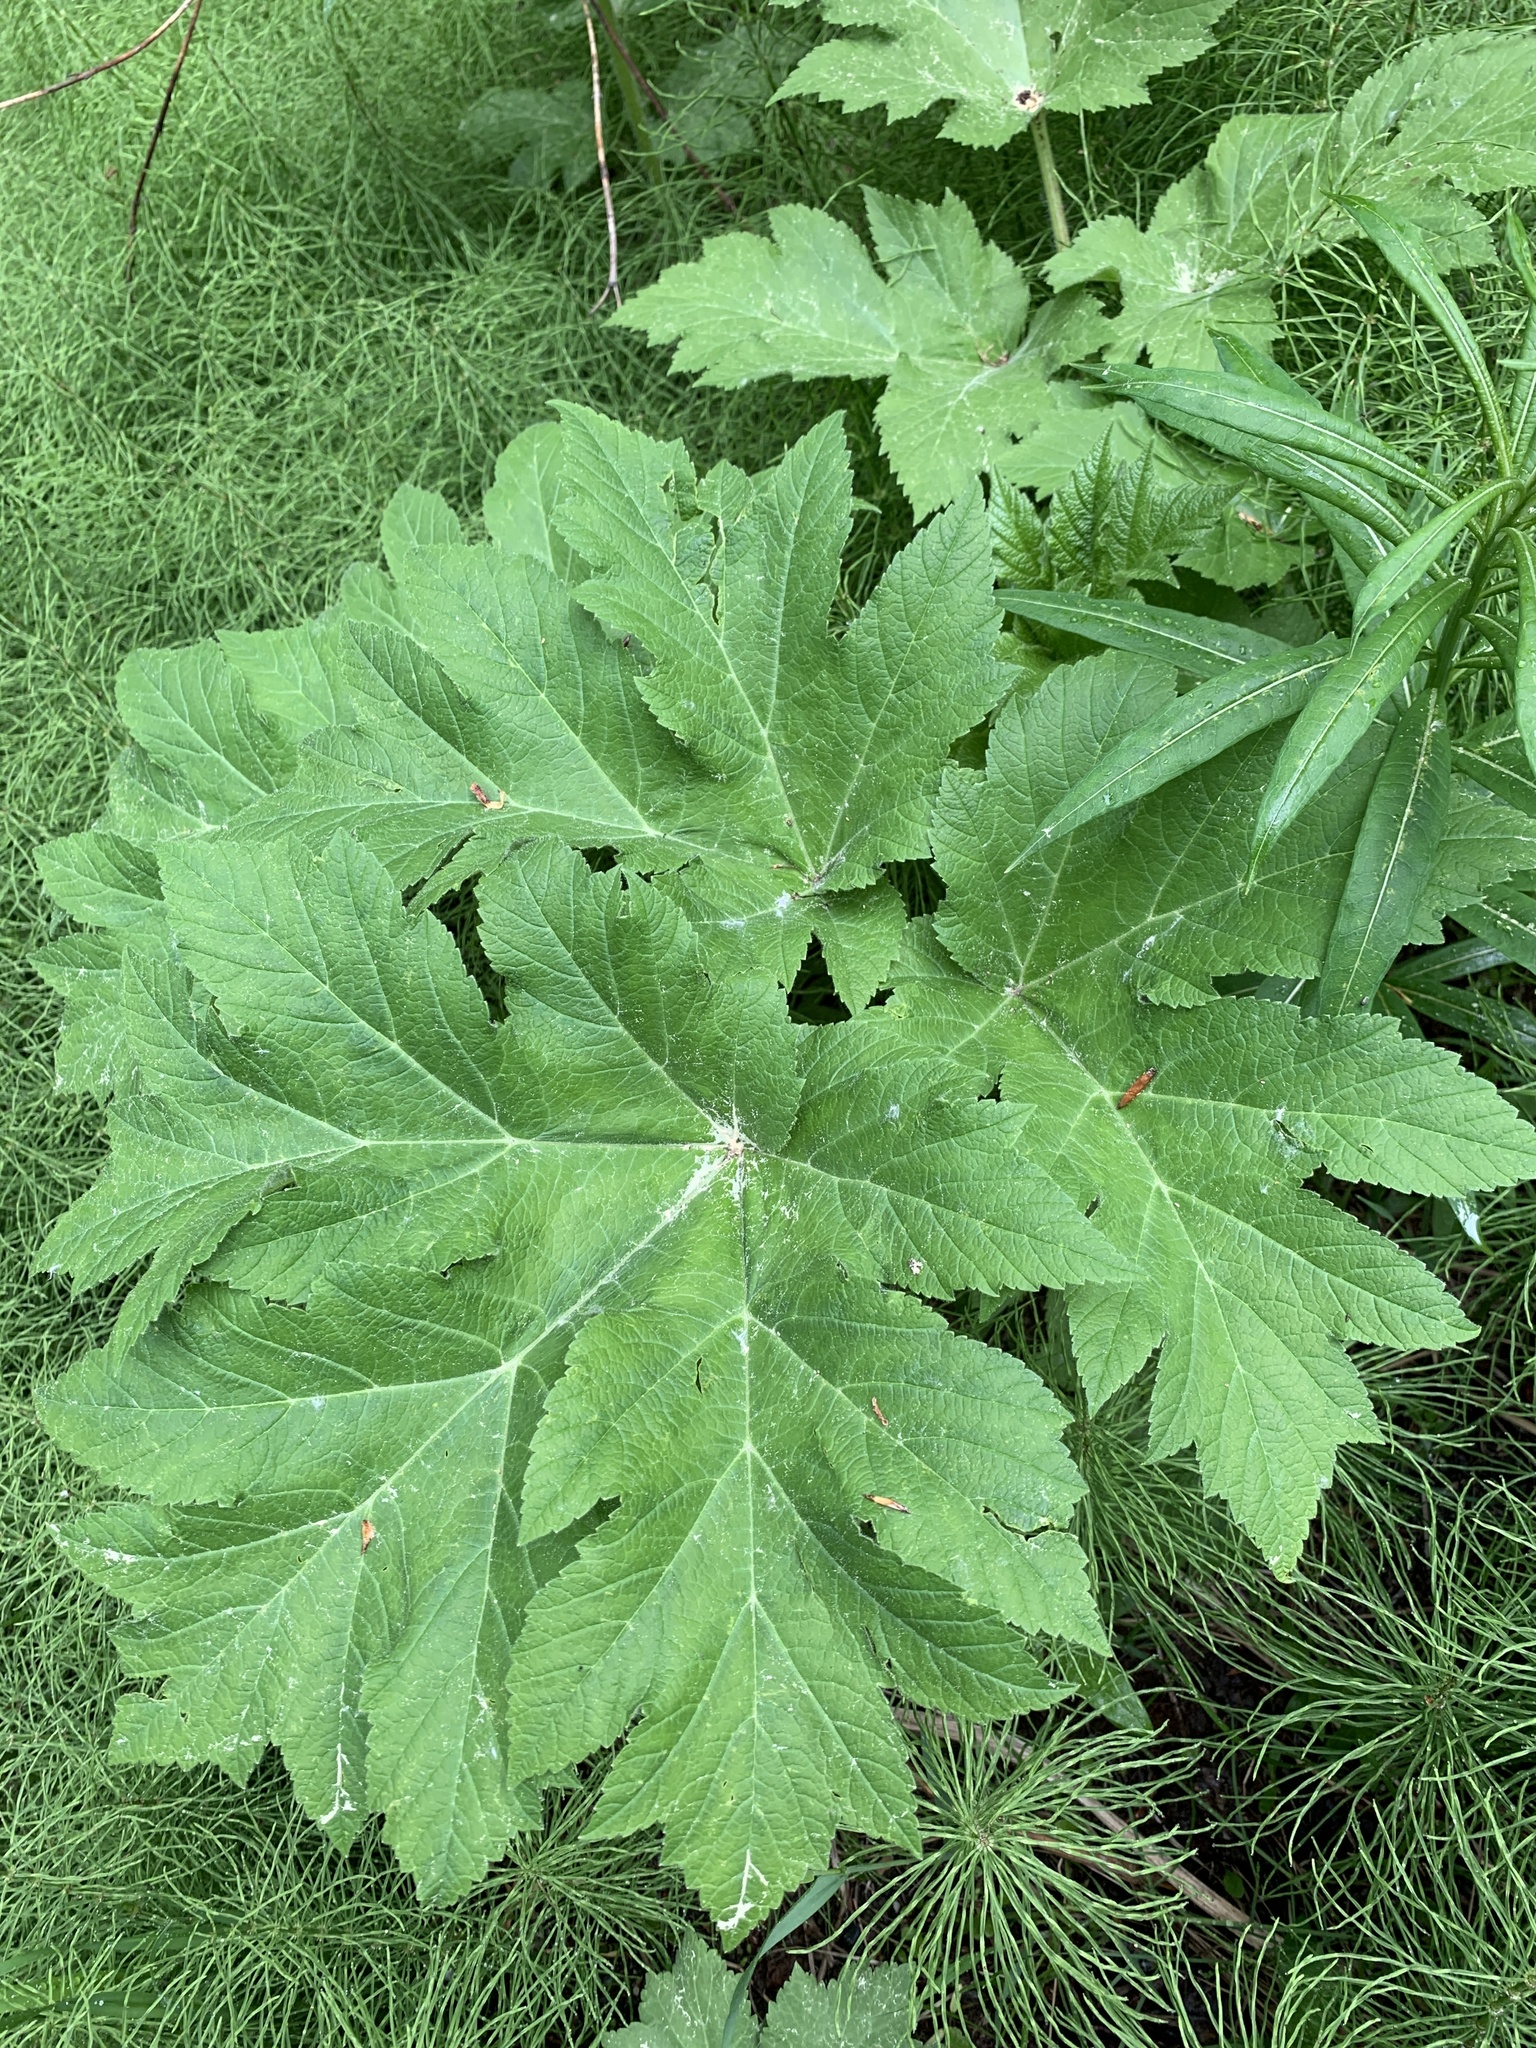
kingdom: Plantae
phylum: Tracheophyta
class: Magnoliopsida
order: Apiales
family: Apiaceae
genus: Heracleum
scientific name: Heracleum maximum
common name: American cow parsnip
